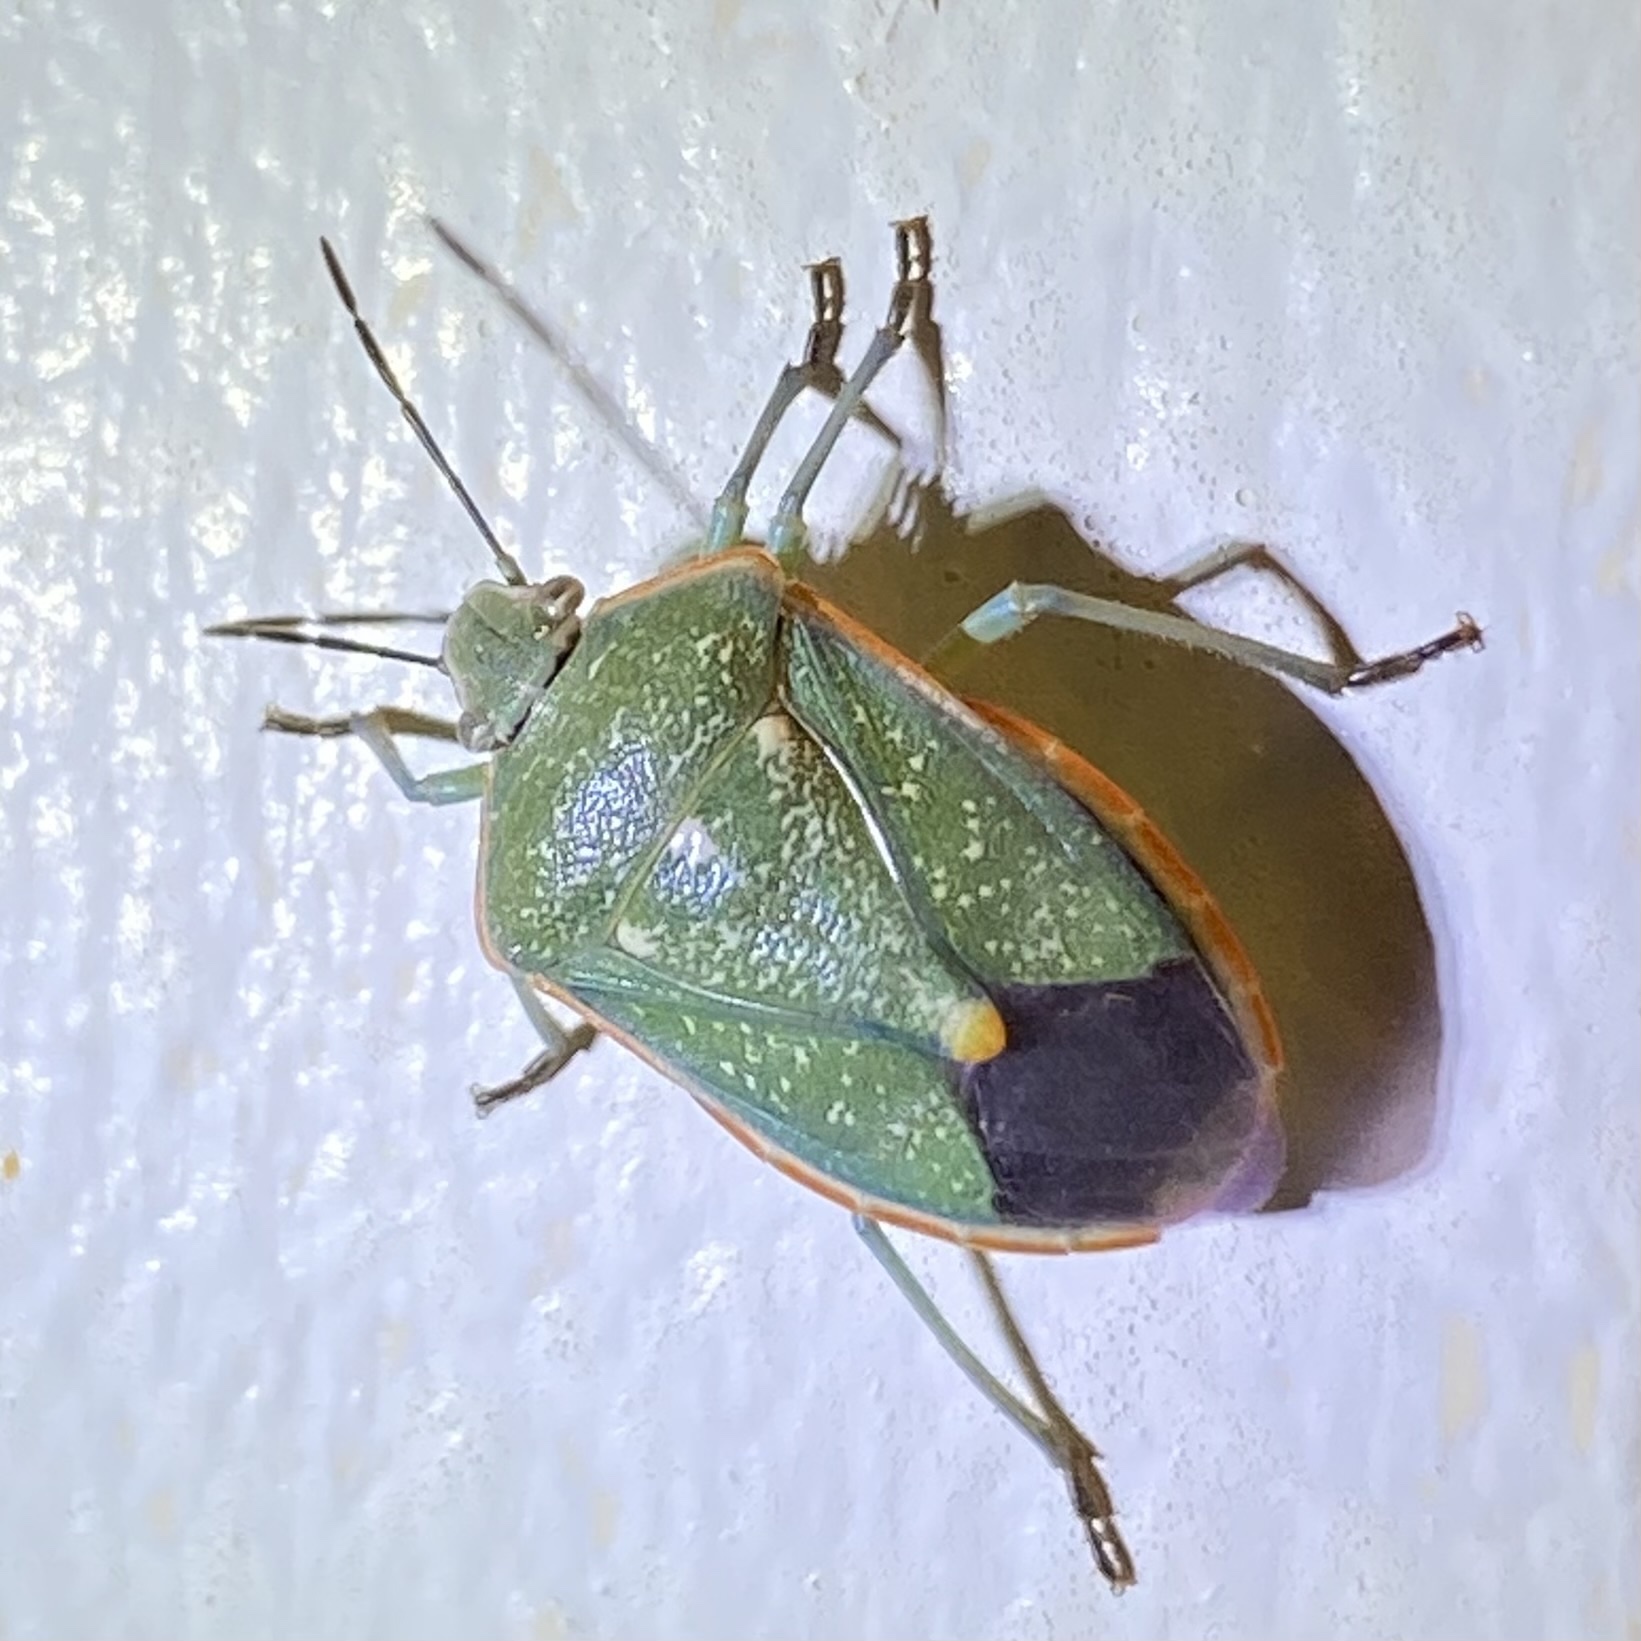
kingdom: Animalia
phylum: Arthropoda
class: Insecta
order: Hemiptera
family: Pentatomidae
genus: Chlorochroa
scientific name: Chlorochroa sayi
